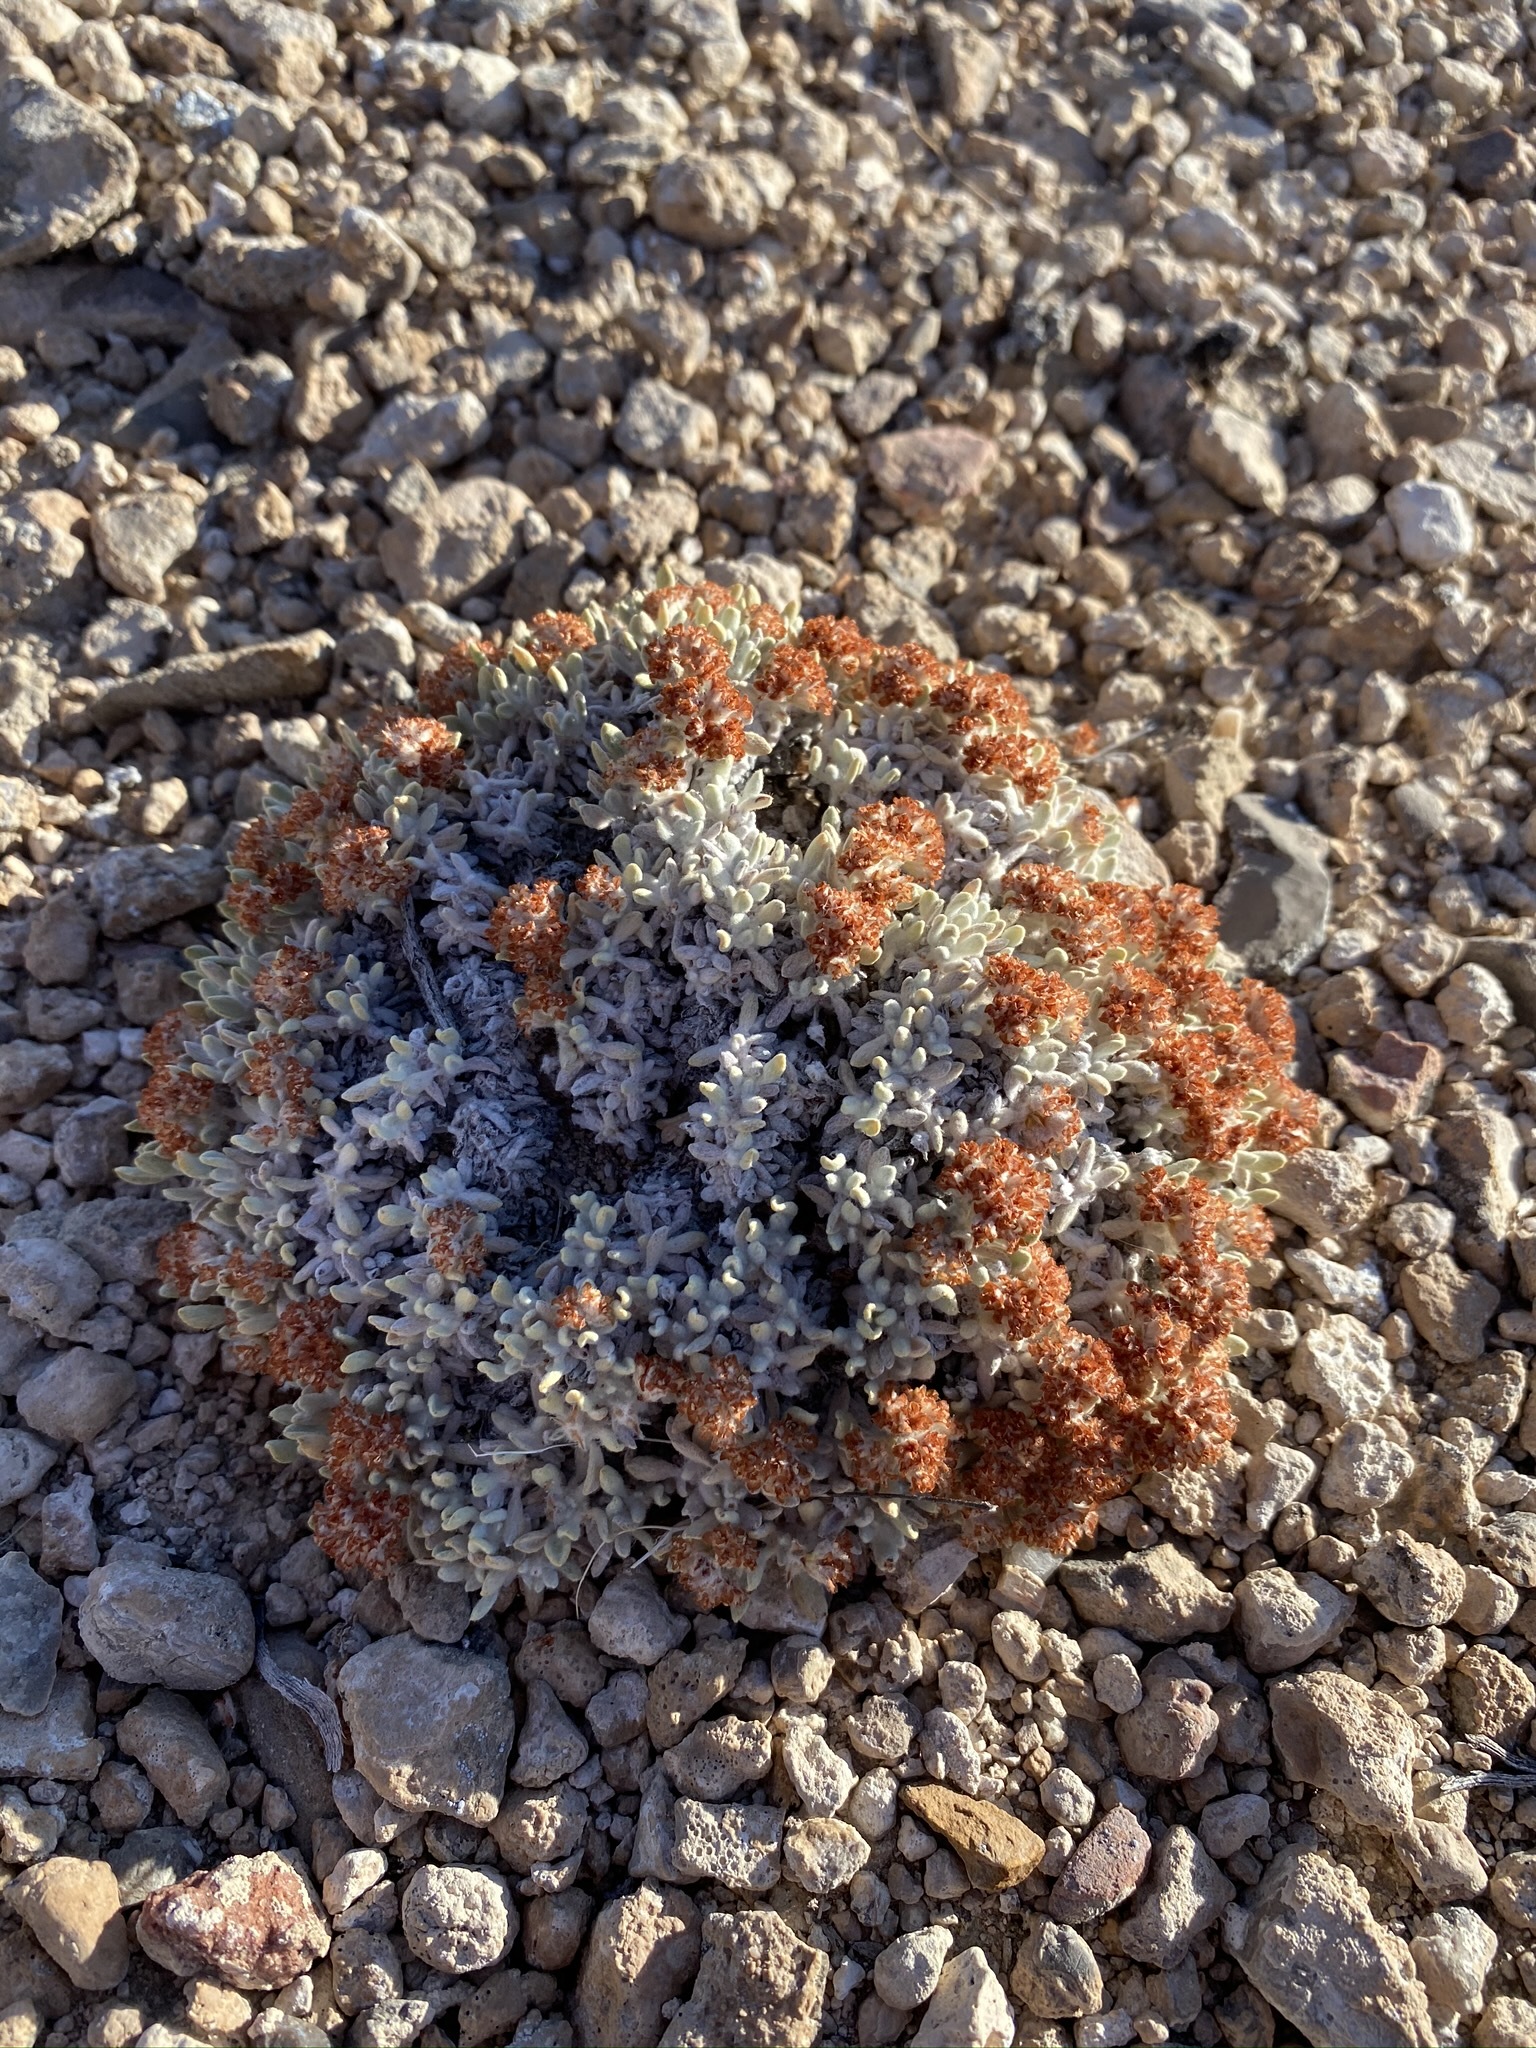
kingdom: Plantae
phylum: Tracheophyta
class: Magnoliopsida
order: Caryophyllales
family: Polygonaceae
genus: Eriogonum
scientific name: Eriogonum shockleyi
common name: Shockley's wild buckwheat
